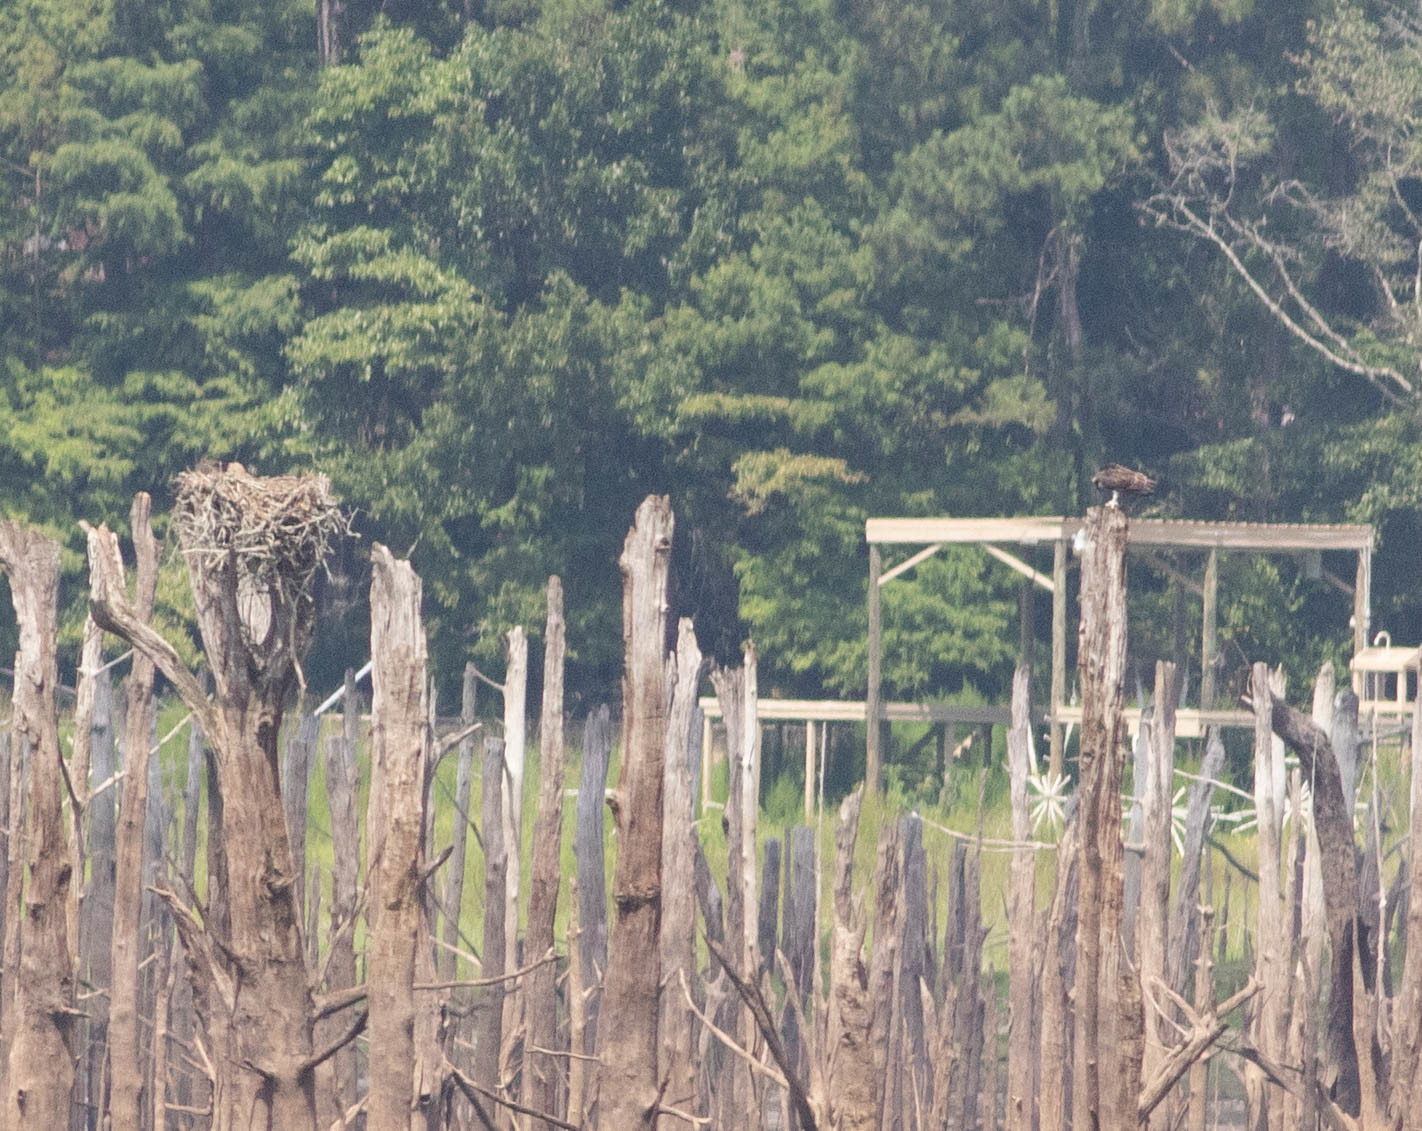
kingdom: Animalia
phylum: Chordata
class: Aves
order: Accipitriformes
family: Pandionidae
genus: Pandion
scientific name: Pandion haliaetus
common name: Osprey
